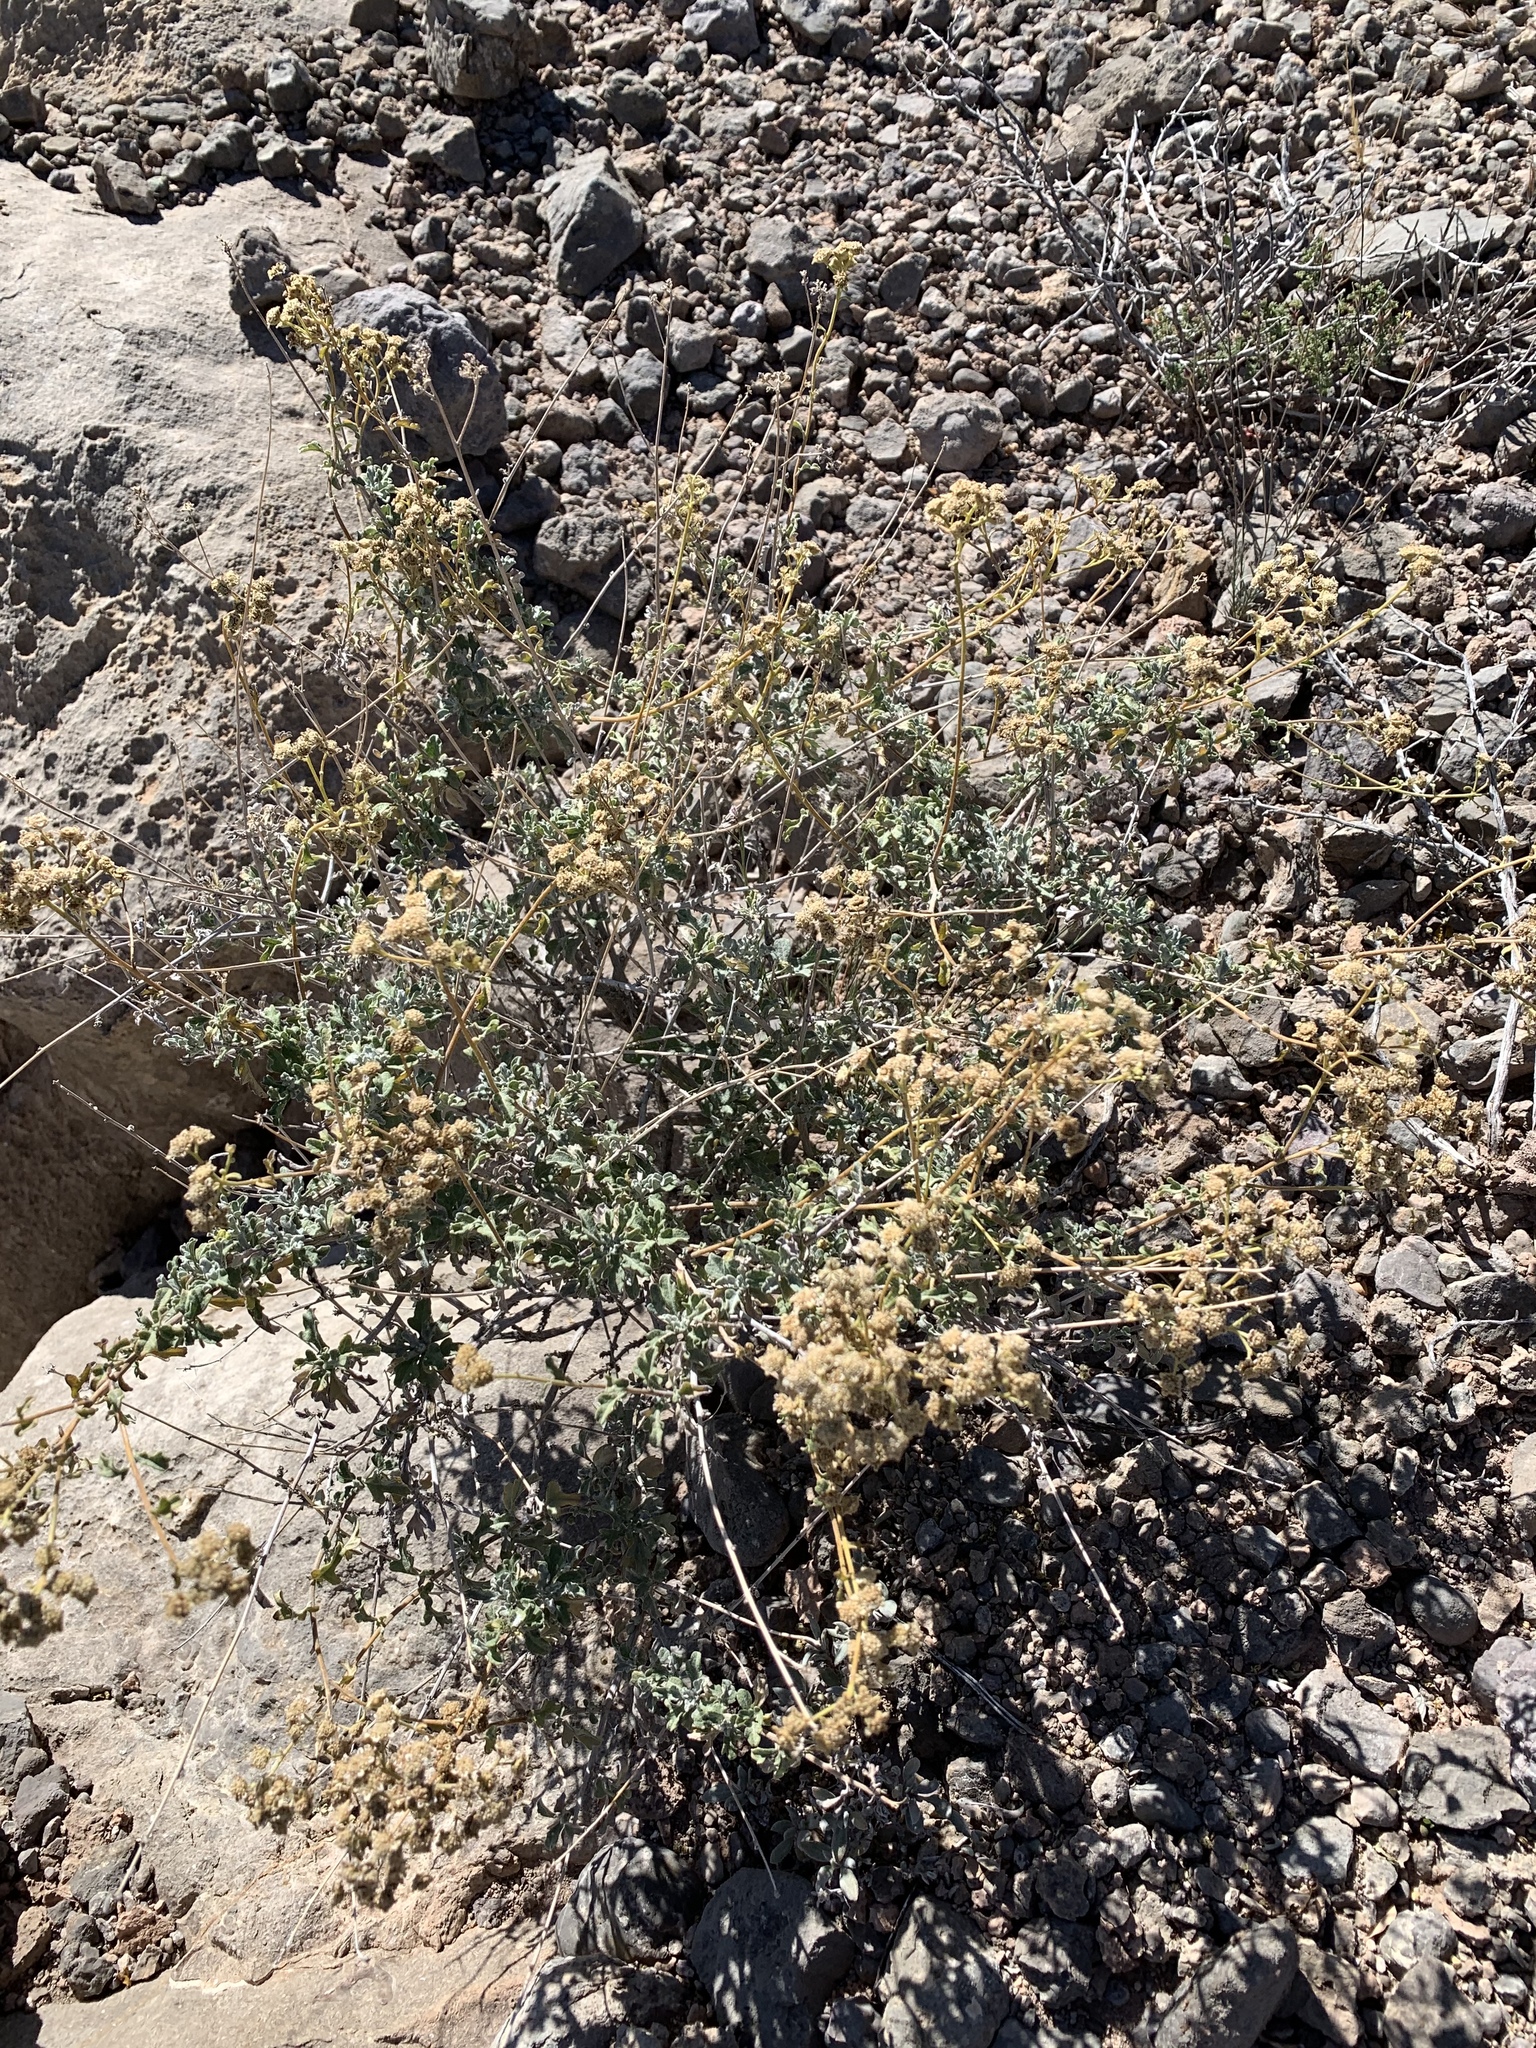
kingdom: Plantae
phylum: Tracheophyta
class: Magnoliopsida
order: Asterales
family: Asteraceae
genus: Parthenium
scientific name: Parthenium incanum
